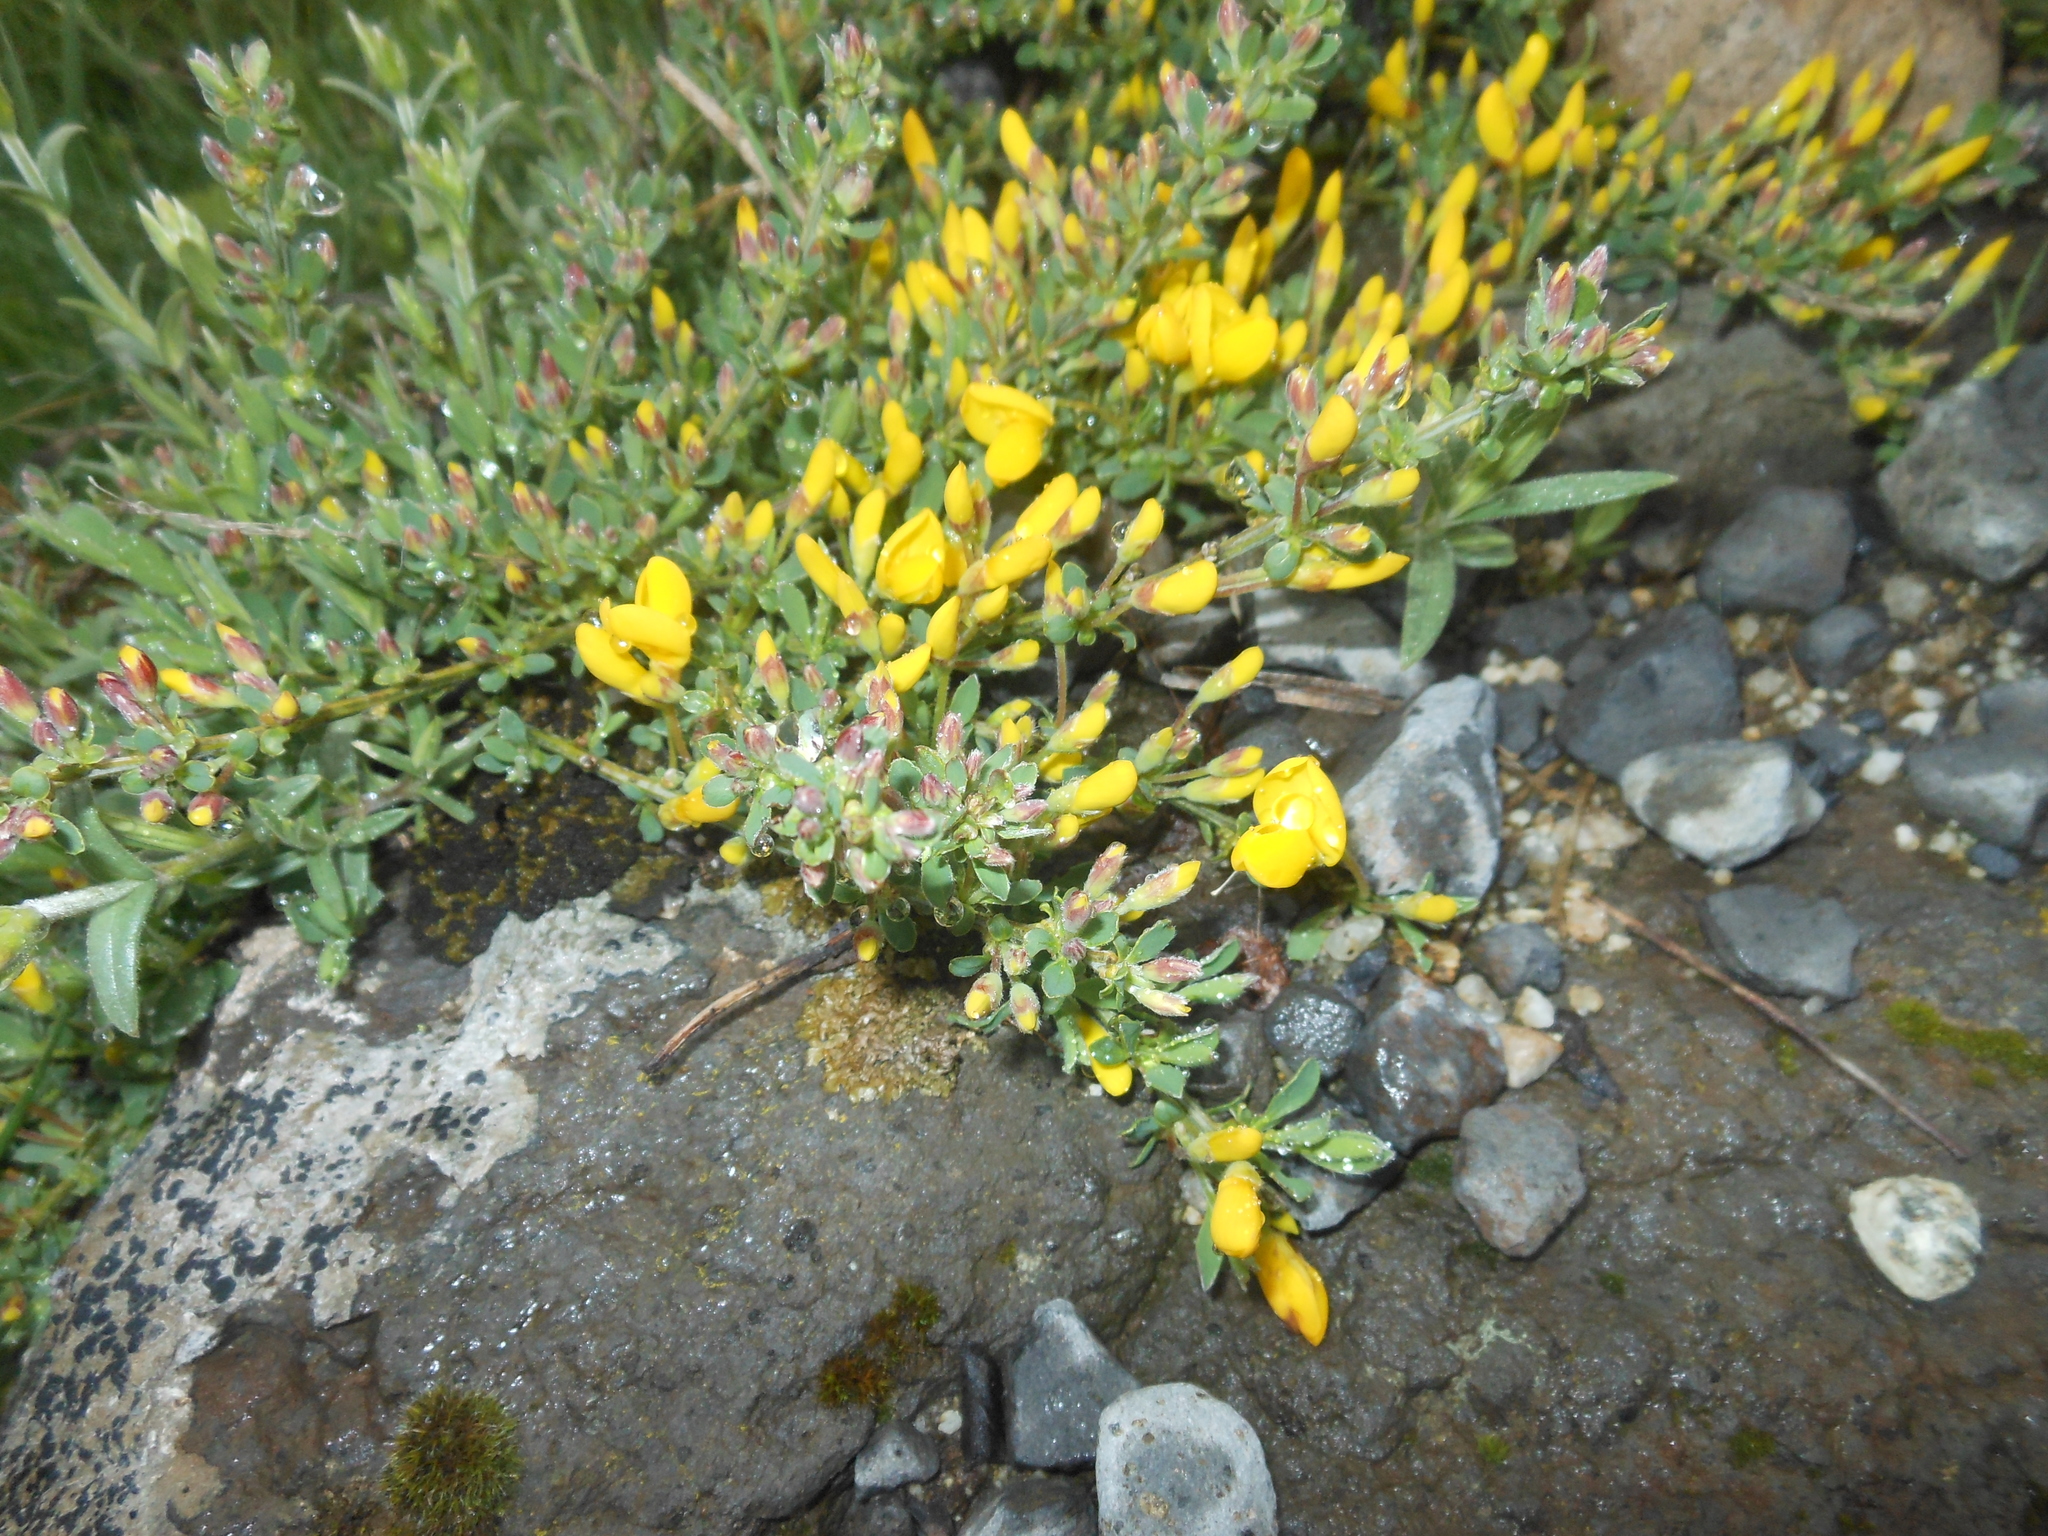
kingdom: Plantae
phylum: Tracheophyta
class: Magnoliopsida
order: Fabales
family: Fabaceae
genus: Genista
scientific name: Genista pilosa
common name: Hairy greenweed
